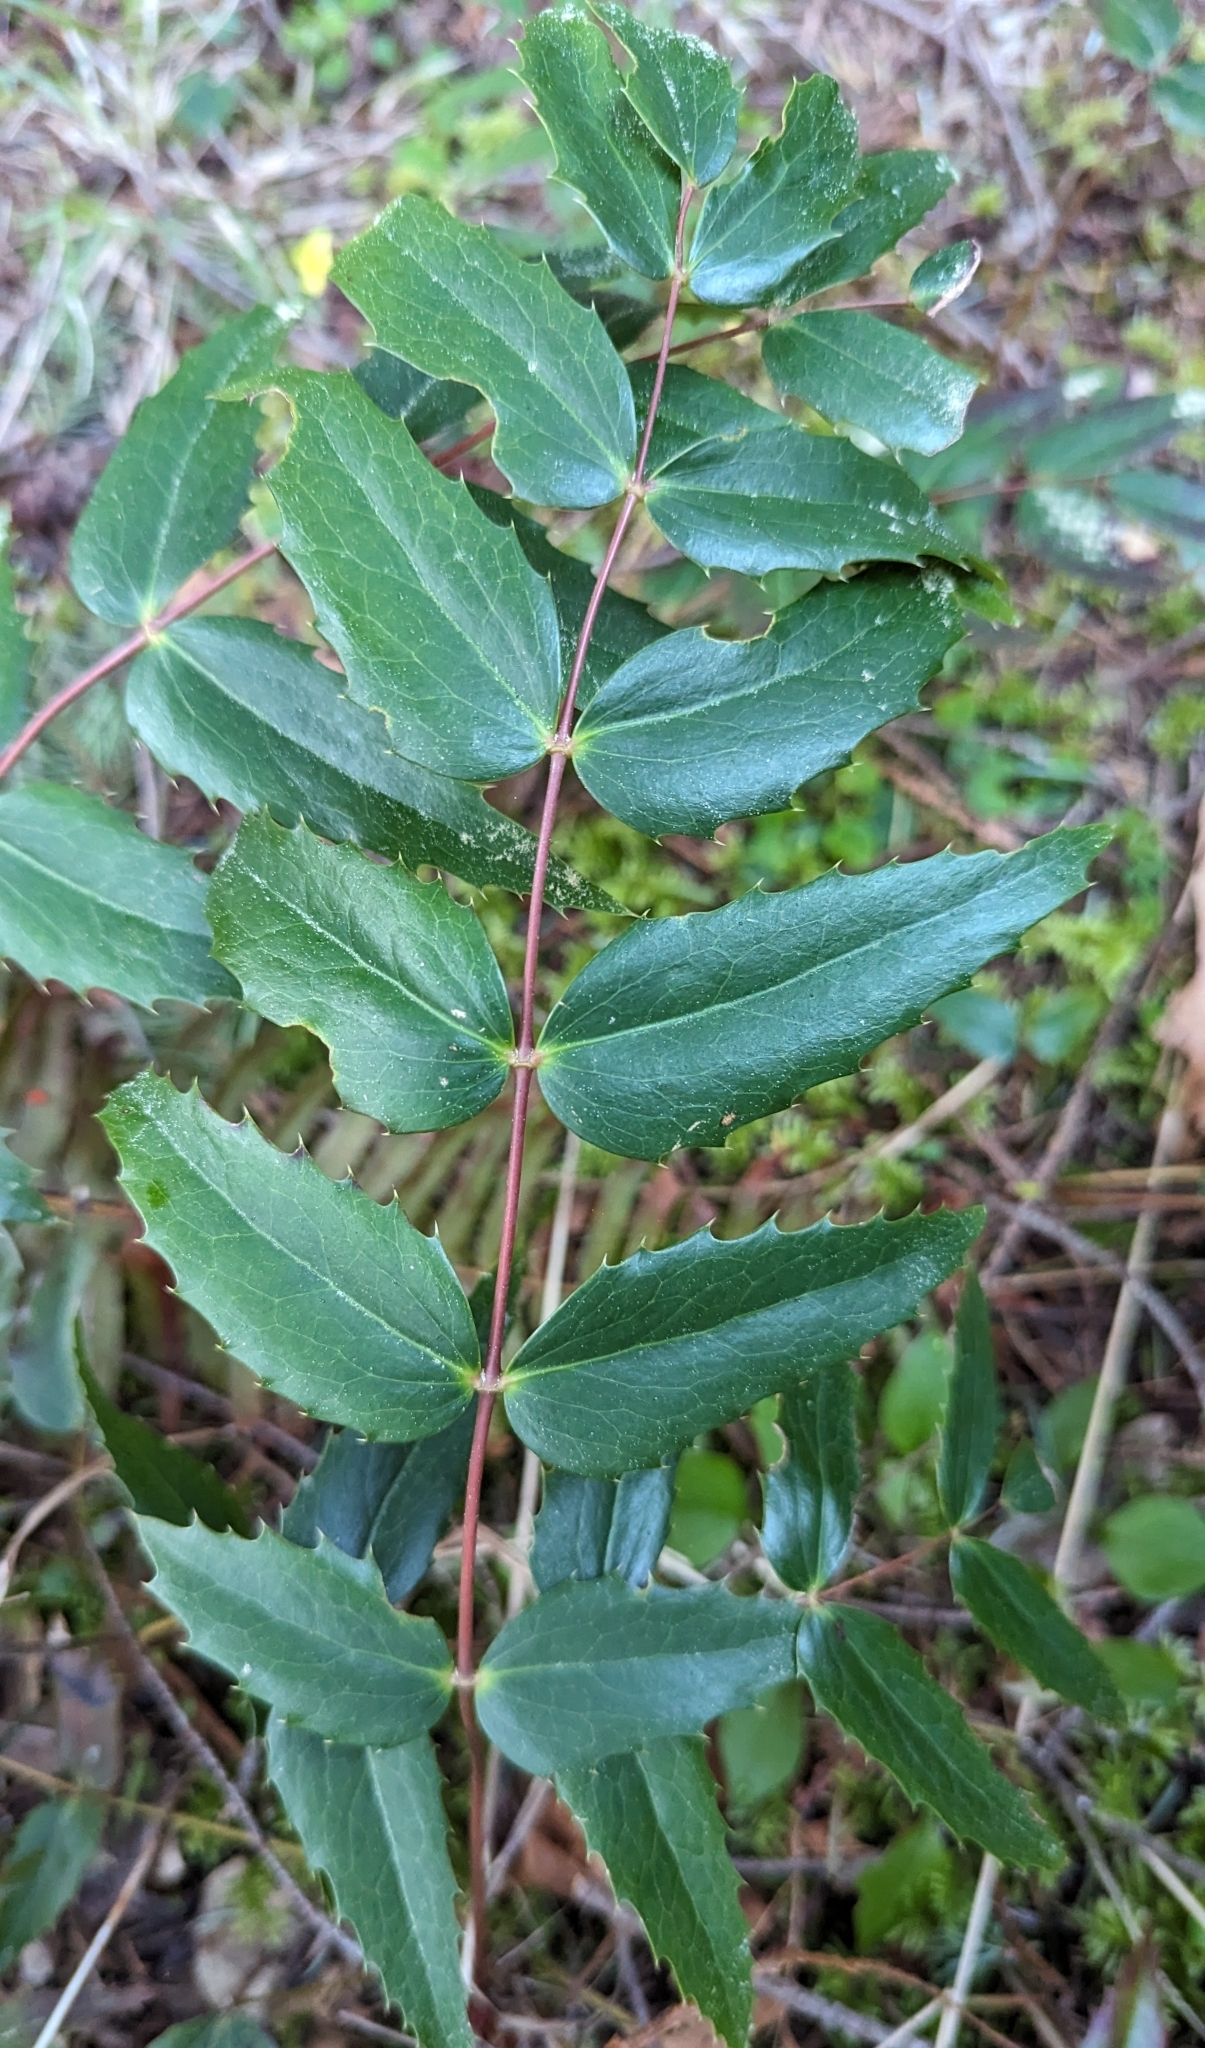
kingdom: Plantae
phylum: Tracheophyta
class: Magnoliopsida
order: Ranunculales
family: Berberidaceae
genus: Mahonia
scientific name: Mahonia nervosa
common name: Cascade oregon-grape
